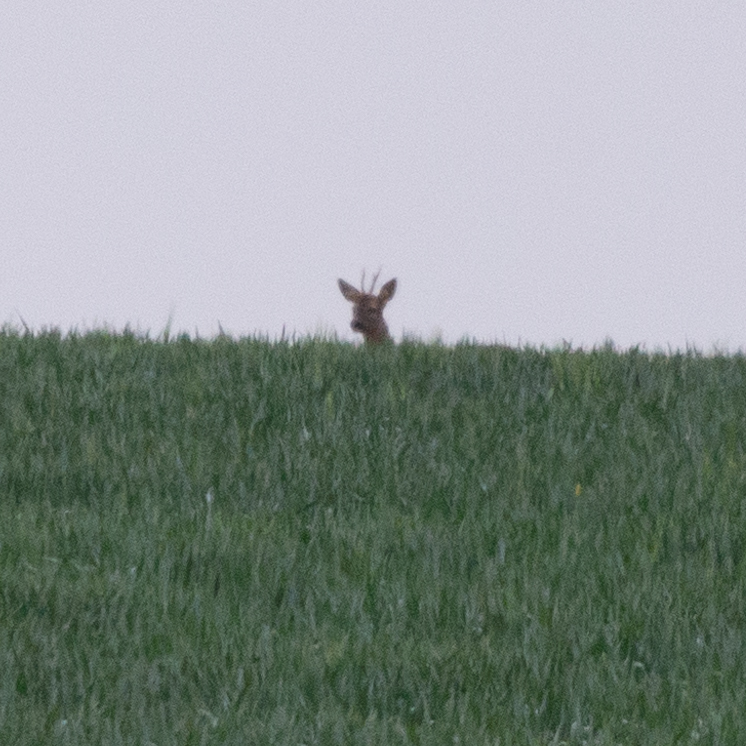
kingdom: Animalia
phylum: Chordata
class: Mammalia
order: Artiodactyla
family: Cervidae
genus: Capreolus
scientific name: Capreolus capreolus
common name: Western roe deer
